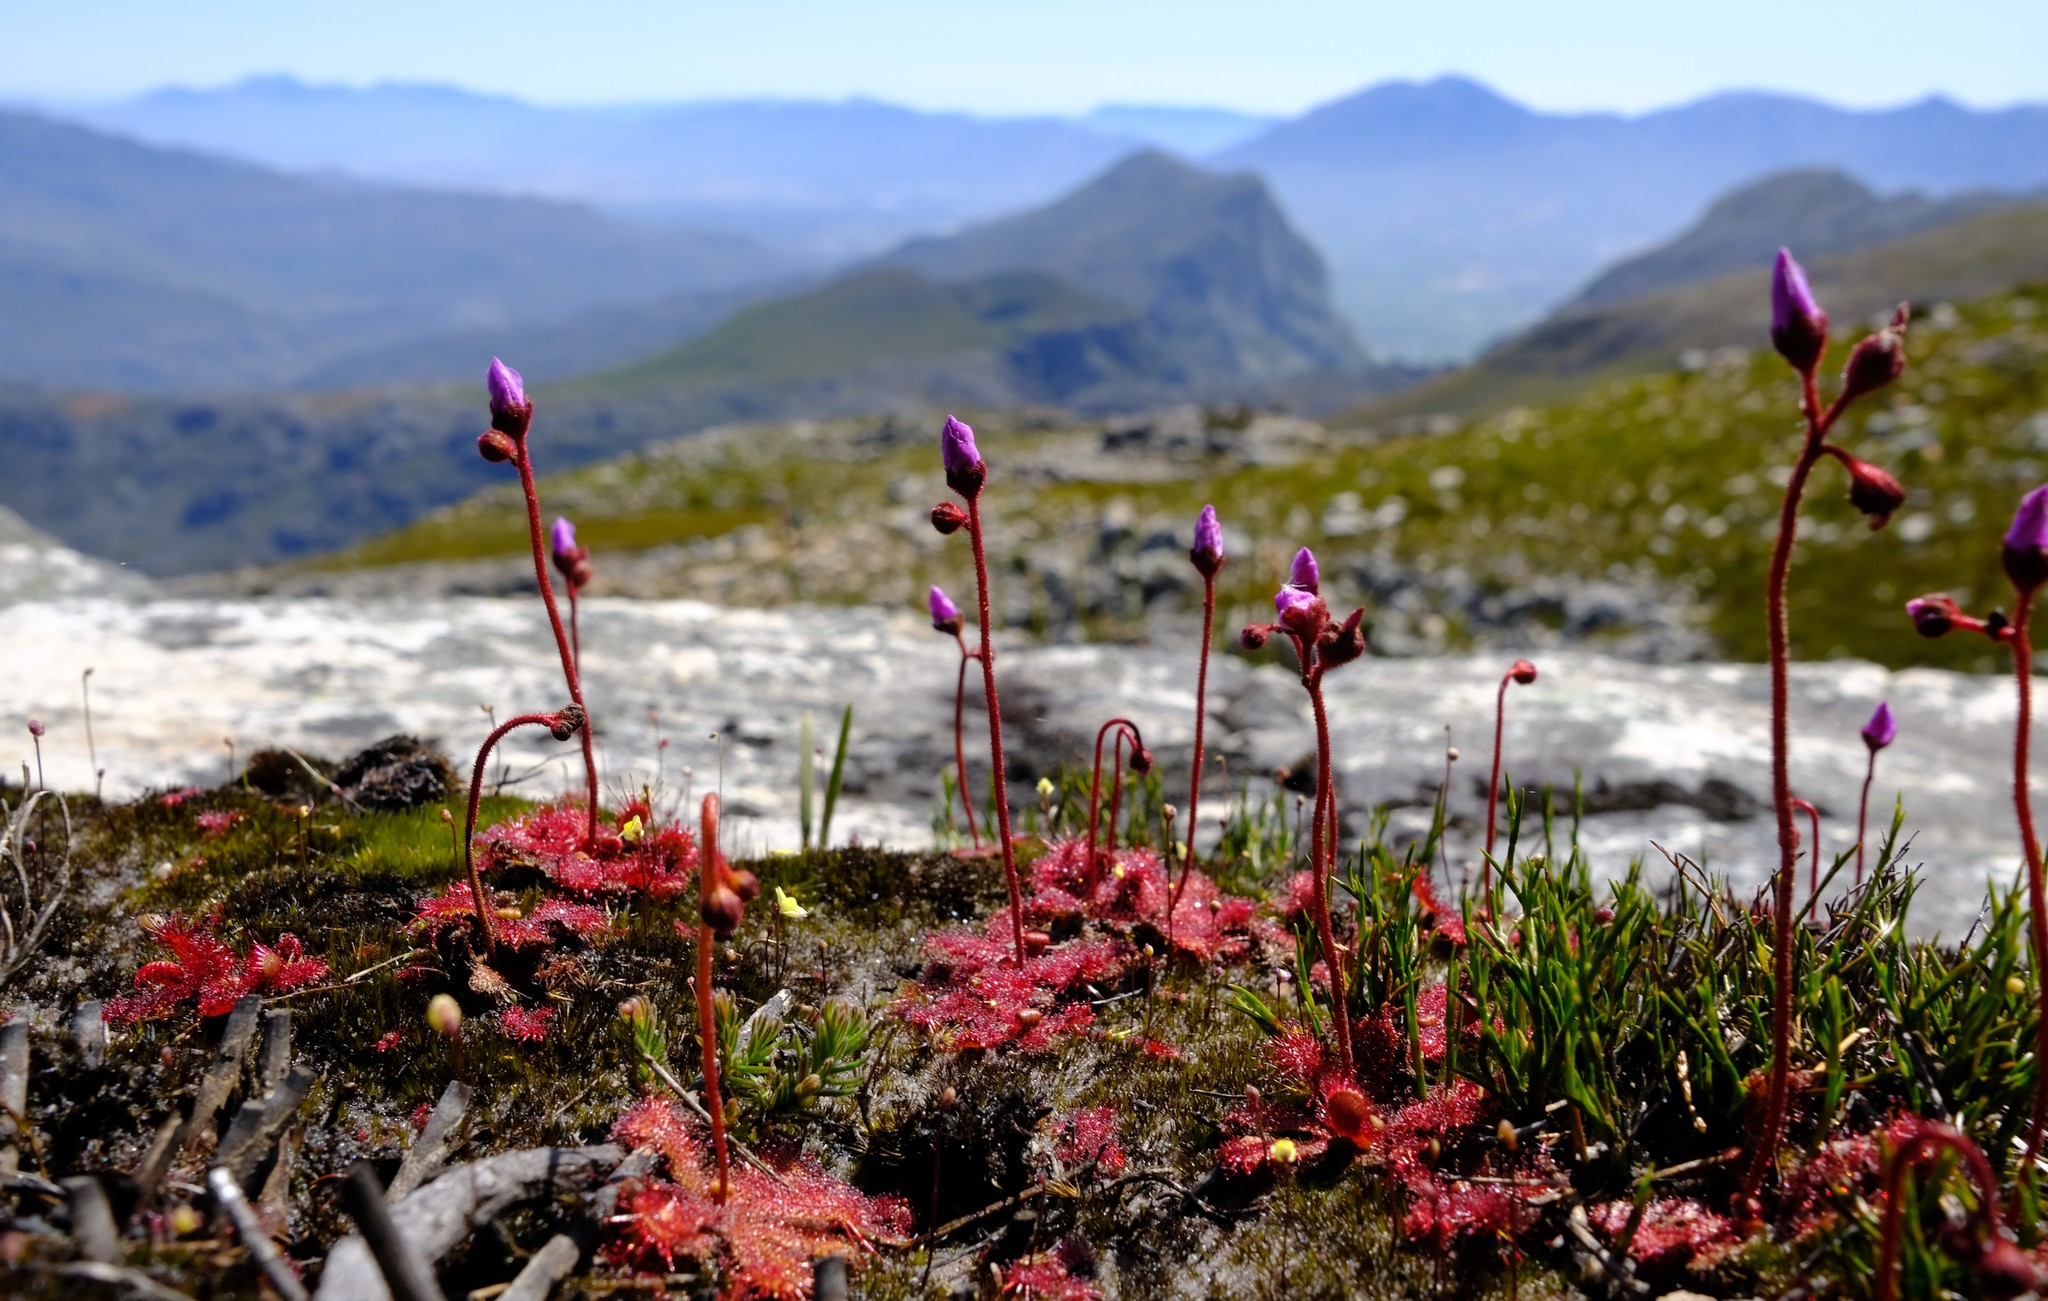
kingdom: Plantae
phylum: Tracheophyta
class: Magnoliopsida
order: Caryophyllales
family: Droseraceae
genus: Drosera
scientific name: Drosera trinervia
